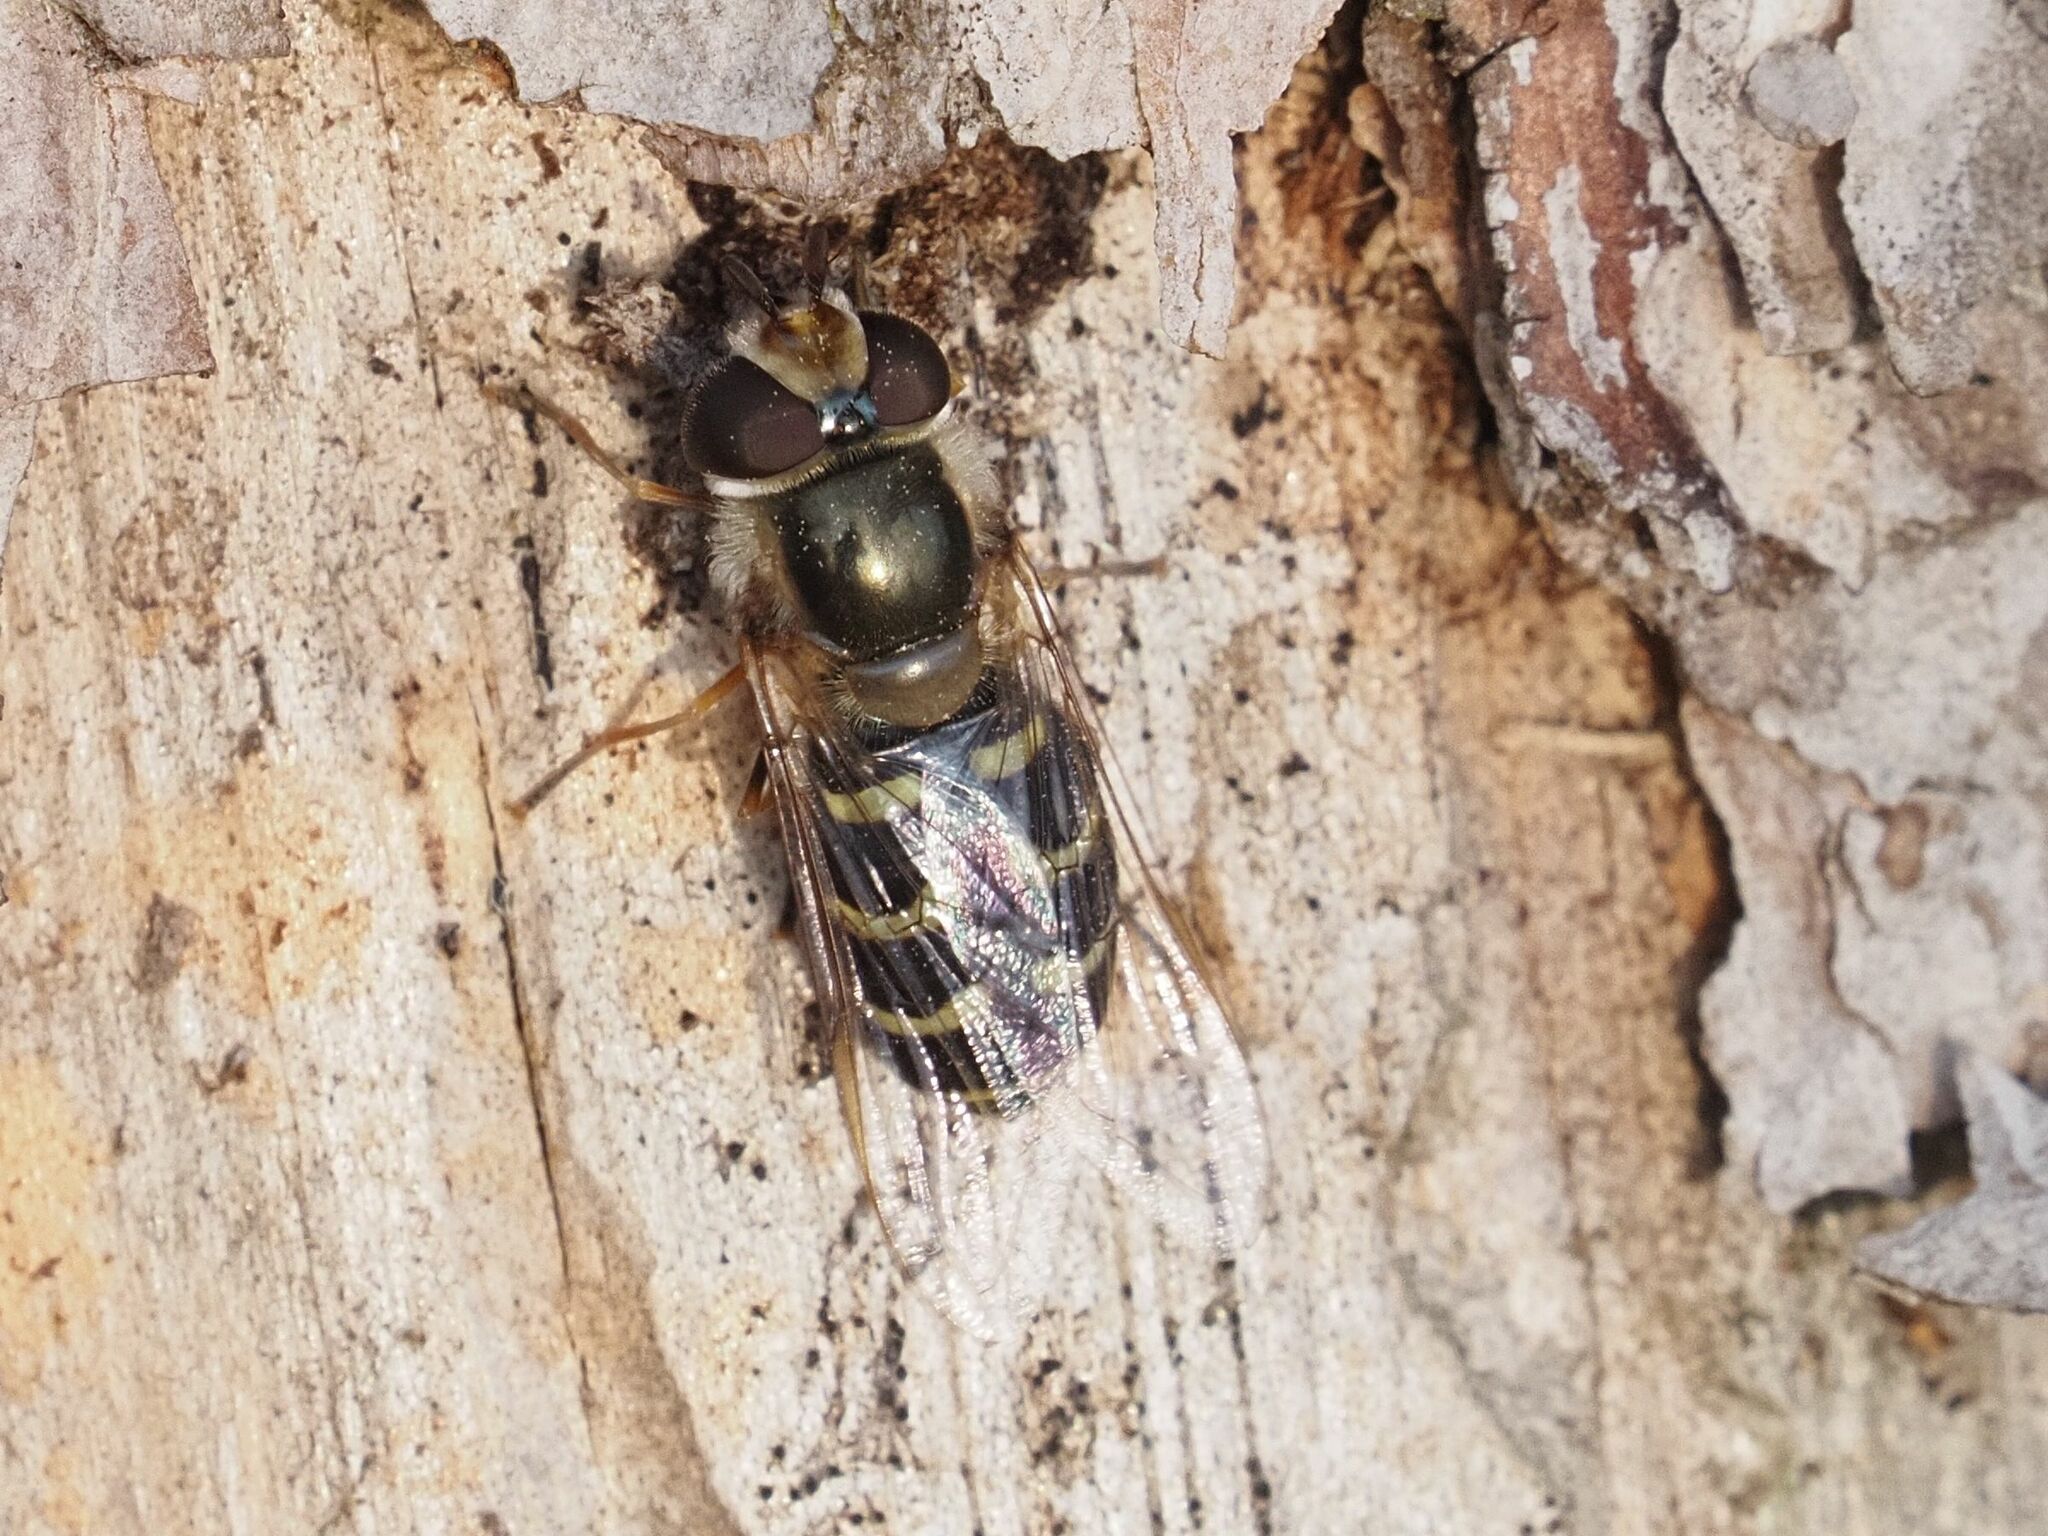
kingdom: Animalia
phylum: Arthropoda
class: Insecta
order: Diptera
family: Syrphidae
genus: Scaeva
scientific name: Scaeva selenitica
